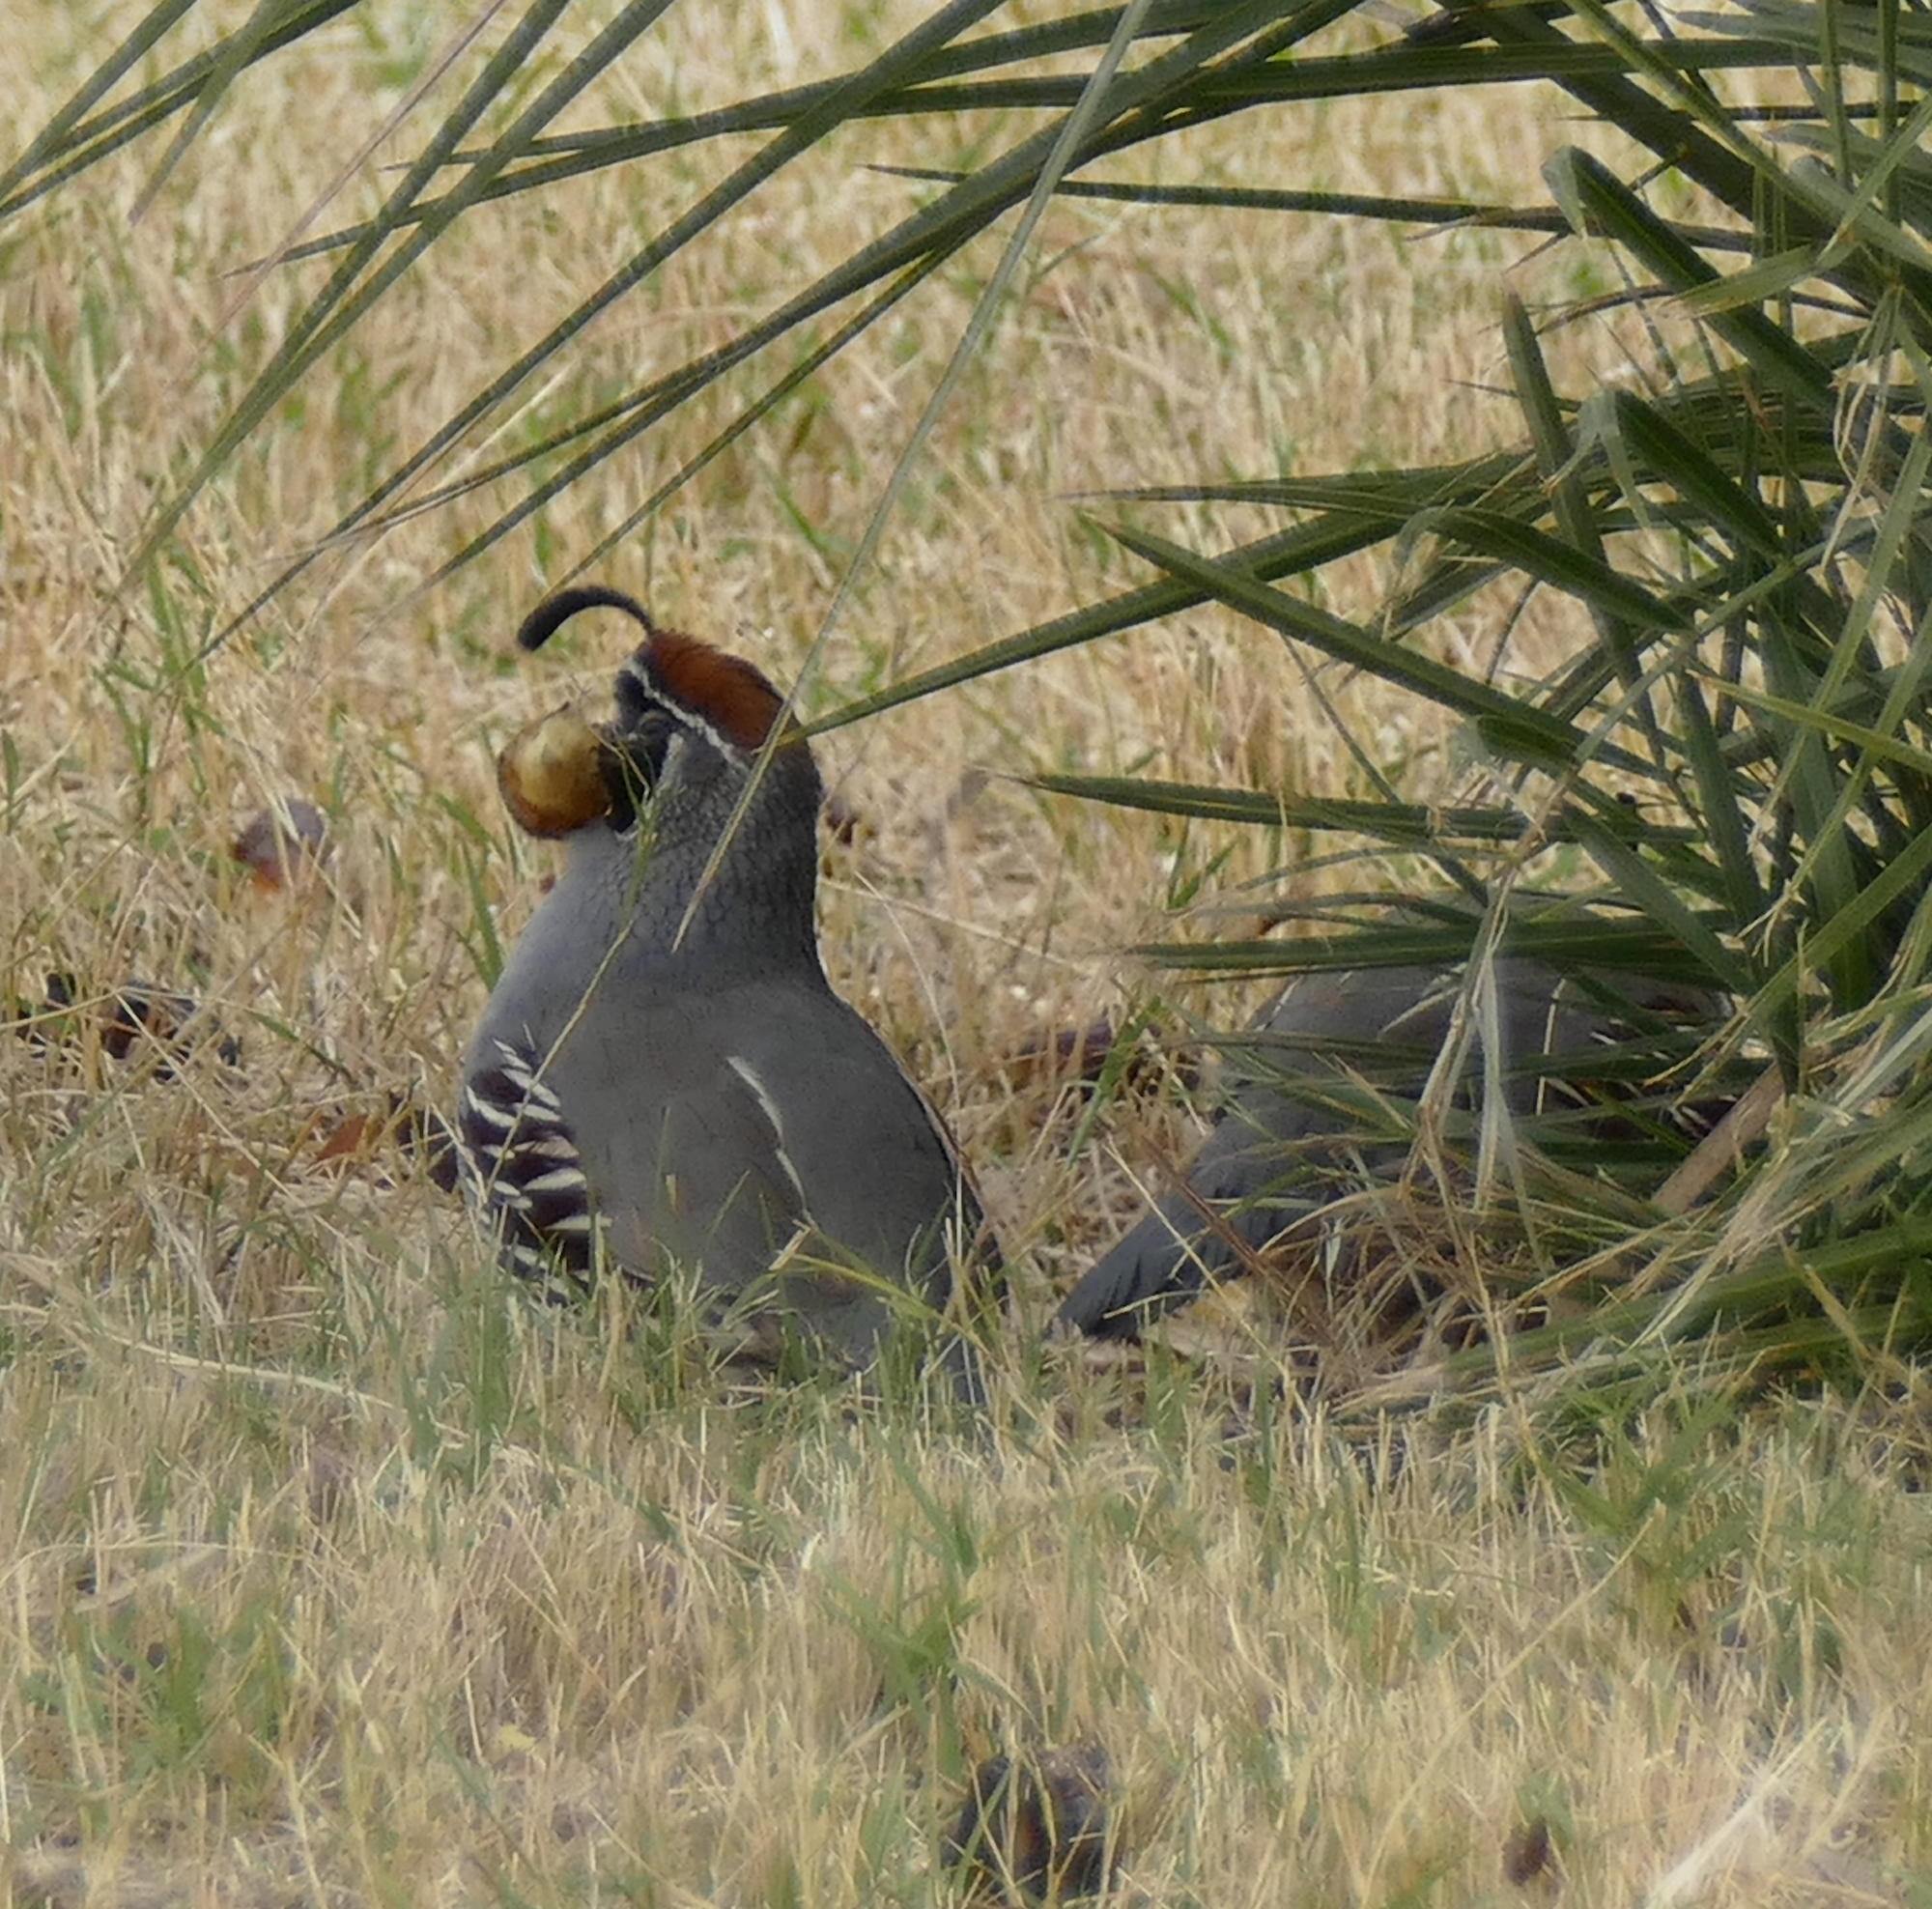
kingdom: Animalia
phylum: Chordata
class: Aves
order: Galliformes
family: Odontophoridae
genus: Callipepla
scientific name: Callipepla gambelii
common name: Gambel's quail
